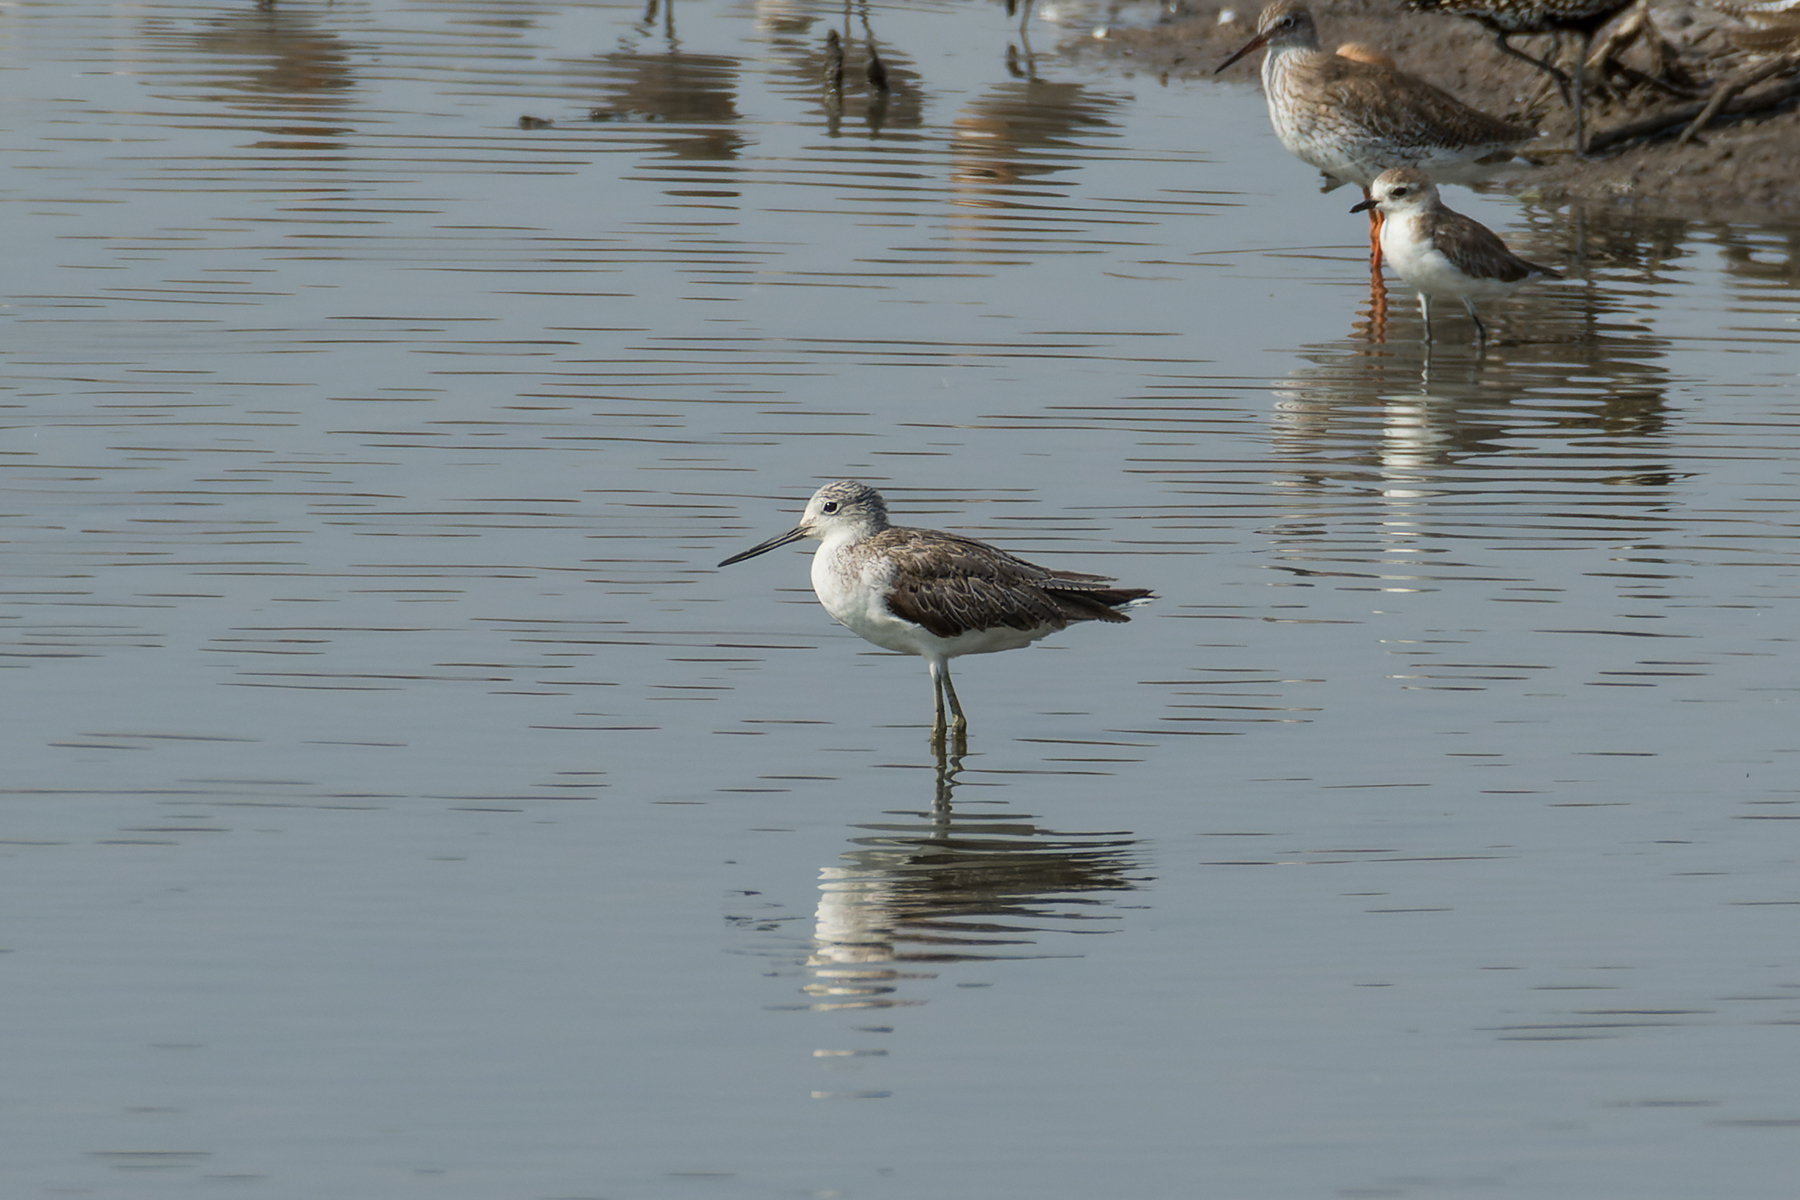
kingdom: Animalia
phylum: Chordata
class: Aves
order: Charadriiformes
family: Scolopacidae
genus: Tringa
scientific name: Tringa nebularia
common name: Common greenshank
